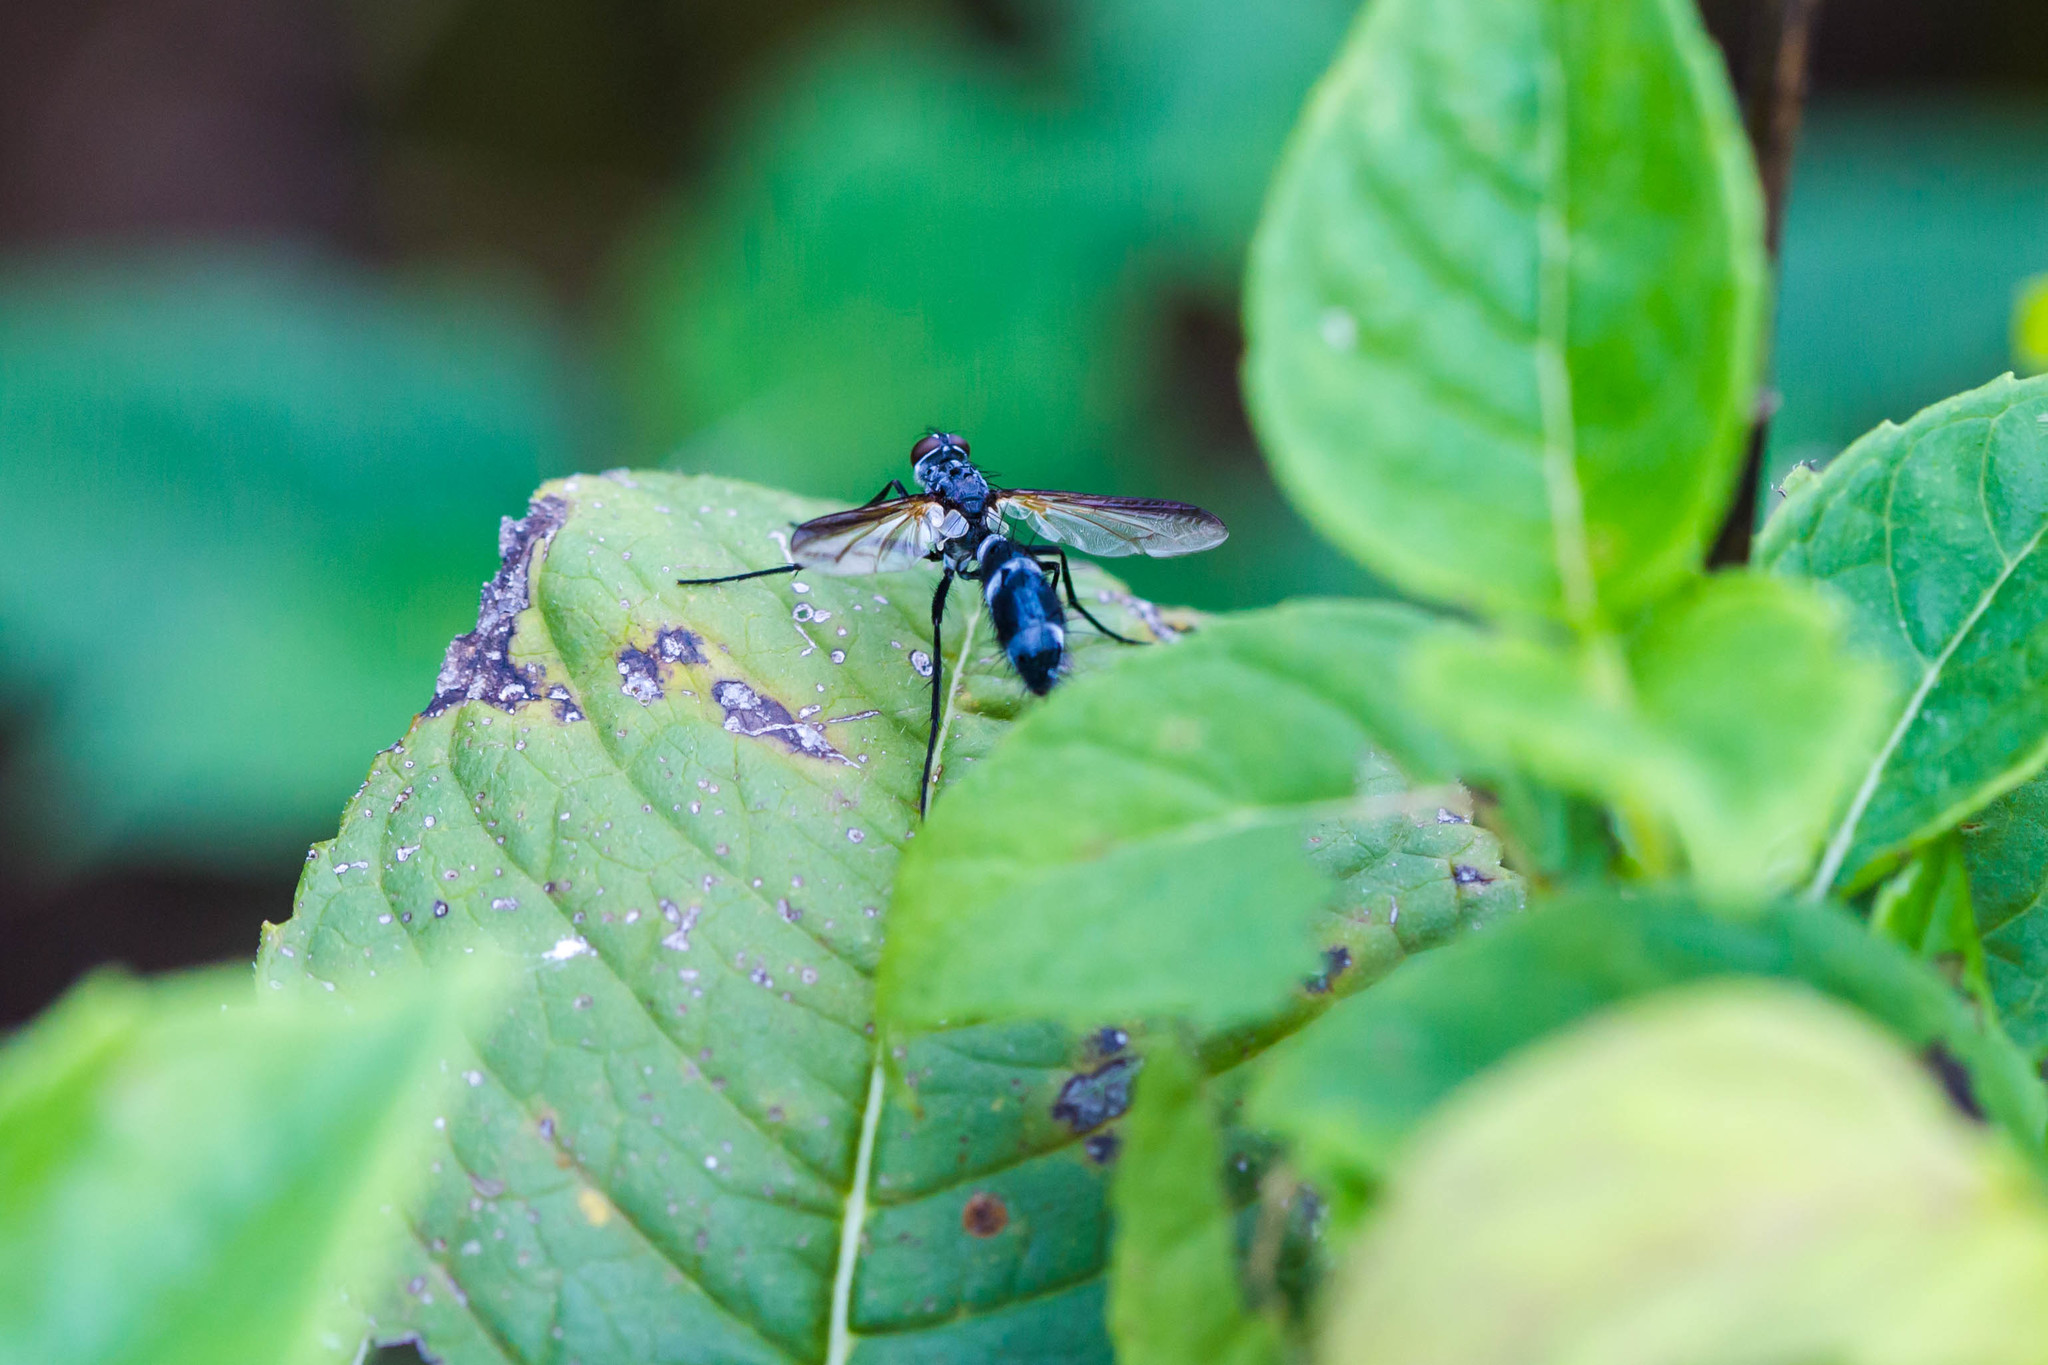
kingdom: Animalia
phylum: Arthropoda
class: Insecta
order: Diptera
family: Tachinidae
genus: Cordyligaster
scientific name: Cordyligaster septentrionalis
